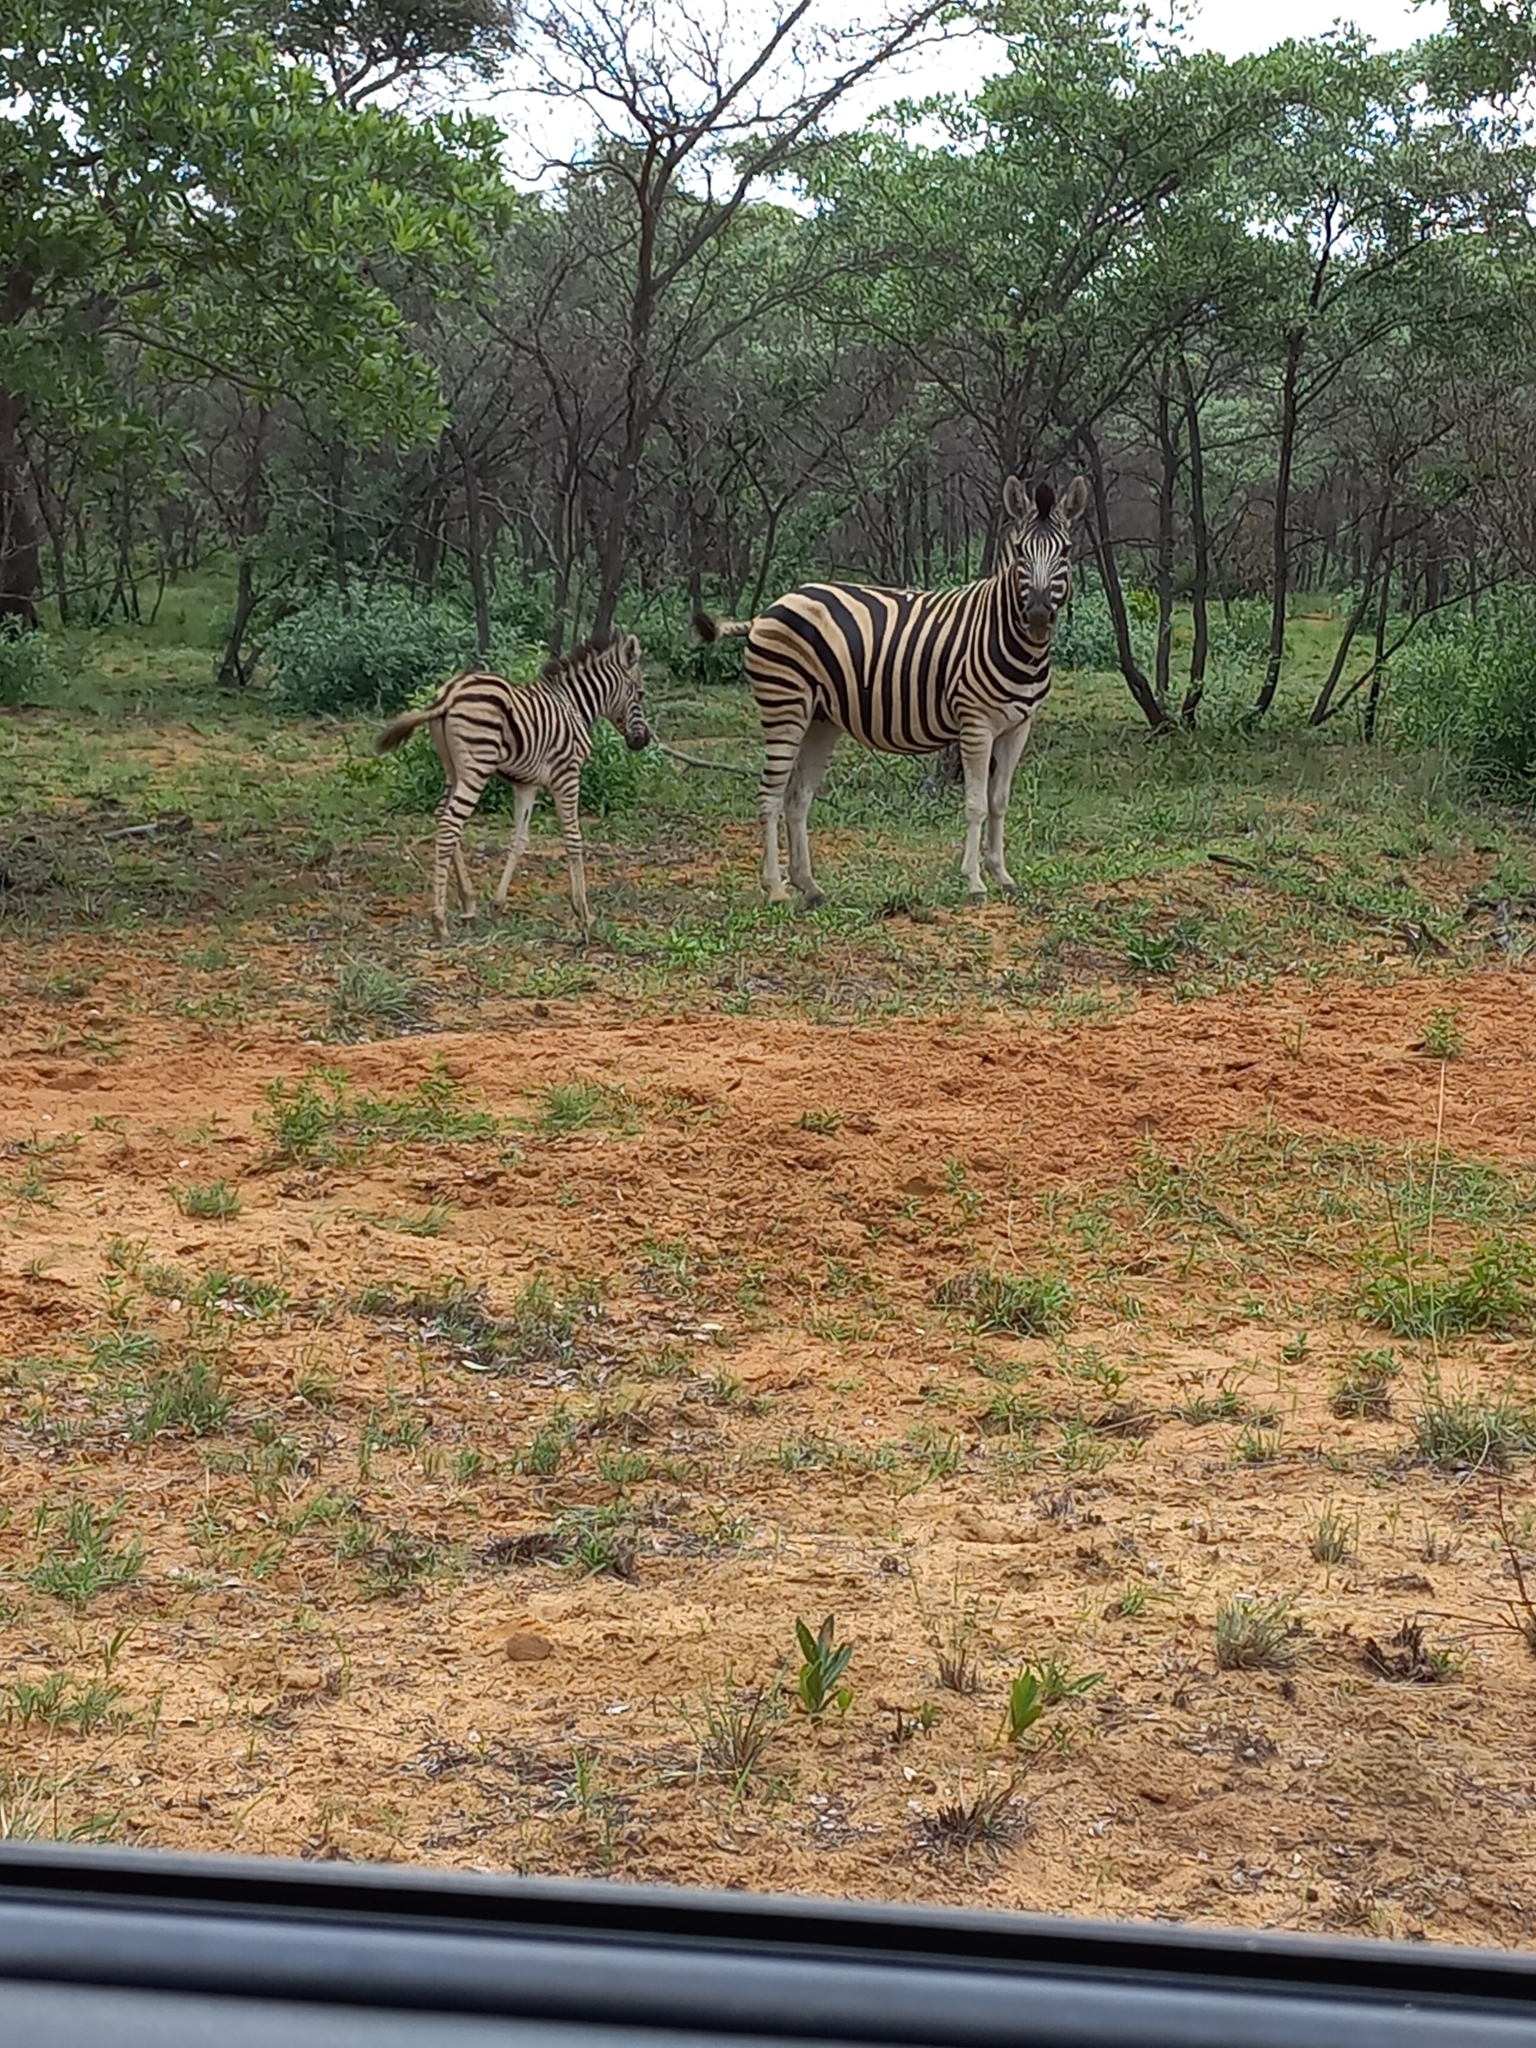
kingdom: Animalia
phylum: Chordata
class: Mammalia
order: Perissodactyla
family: Equidae
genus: Equus
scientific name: Equus quagga
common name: Plains zebra
